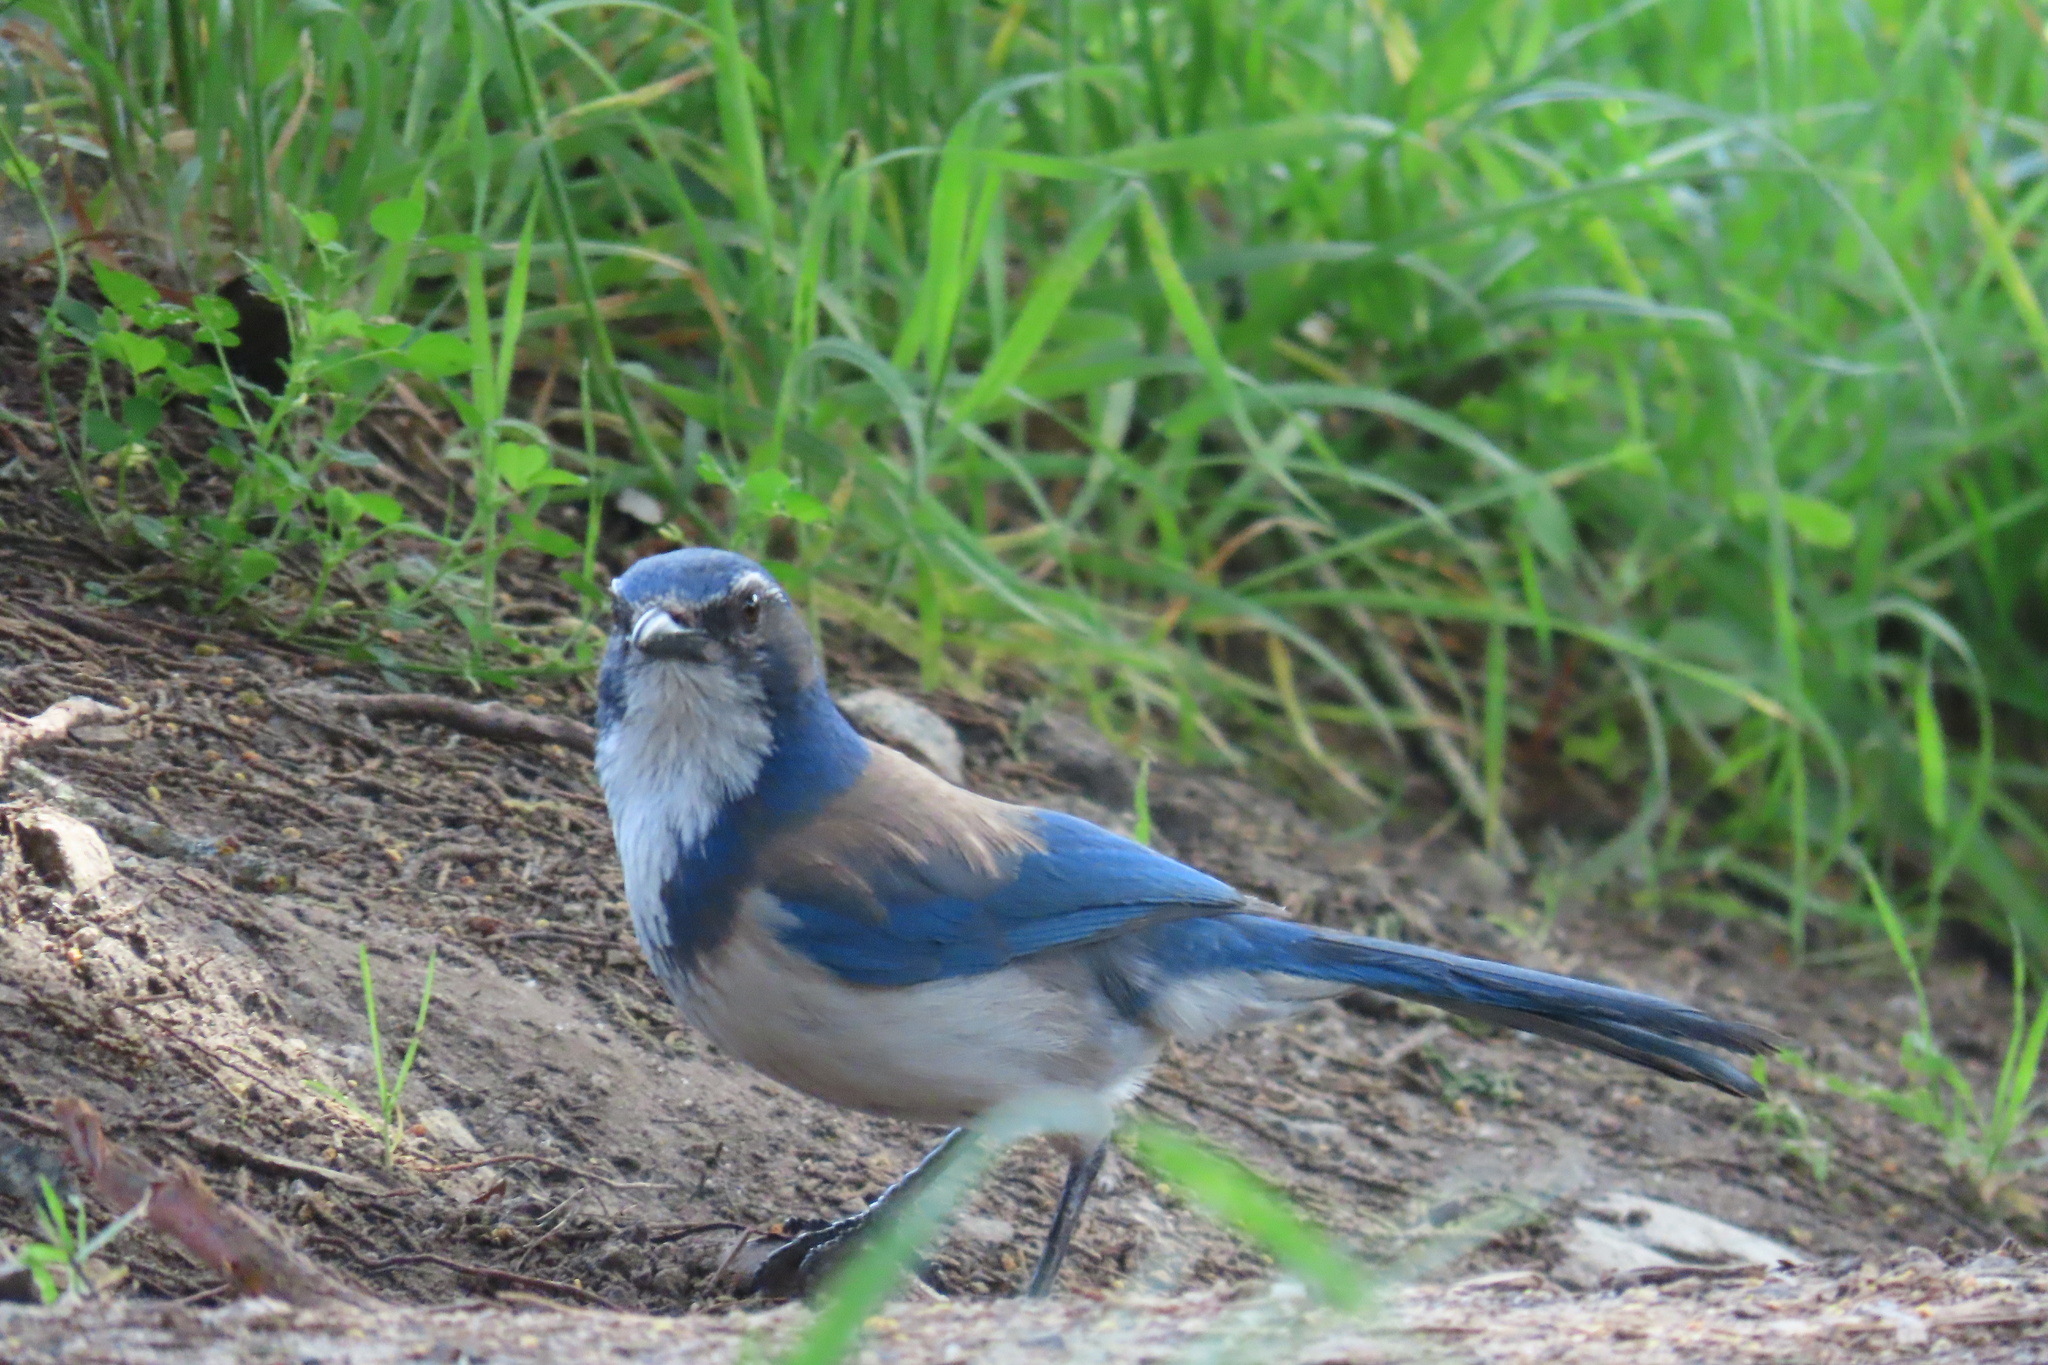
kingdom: Animalia
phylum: Chordata
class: Aves
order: Passeriformes
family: Corvidae
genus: Aphelocoma
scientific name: Aphelocoma californica
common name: California scrub-jay
